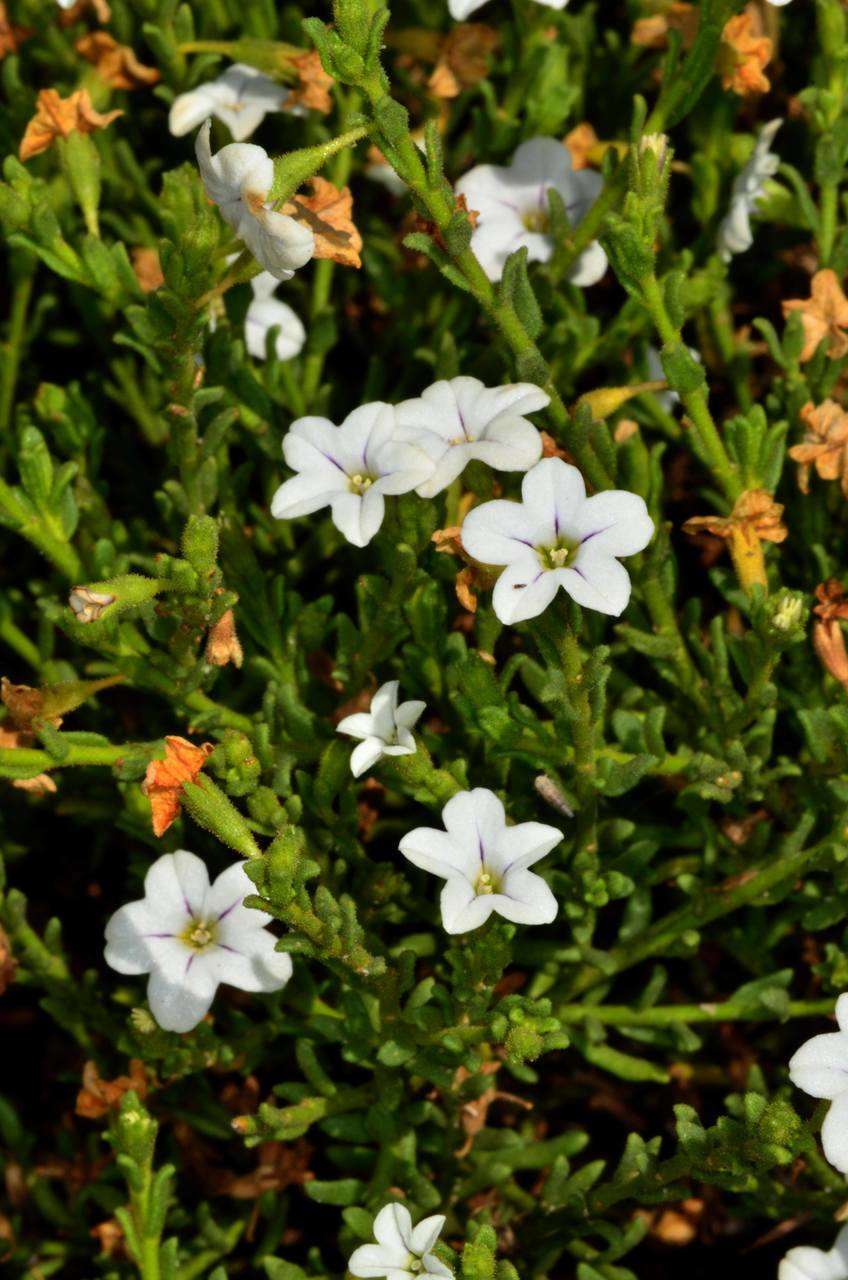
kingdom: Plantae
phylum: Tracheophyta
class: Magnoliopsida
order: Solanales
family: Solanaceae
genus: Cyphanthera
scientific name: Cyphanthera myosotidea
